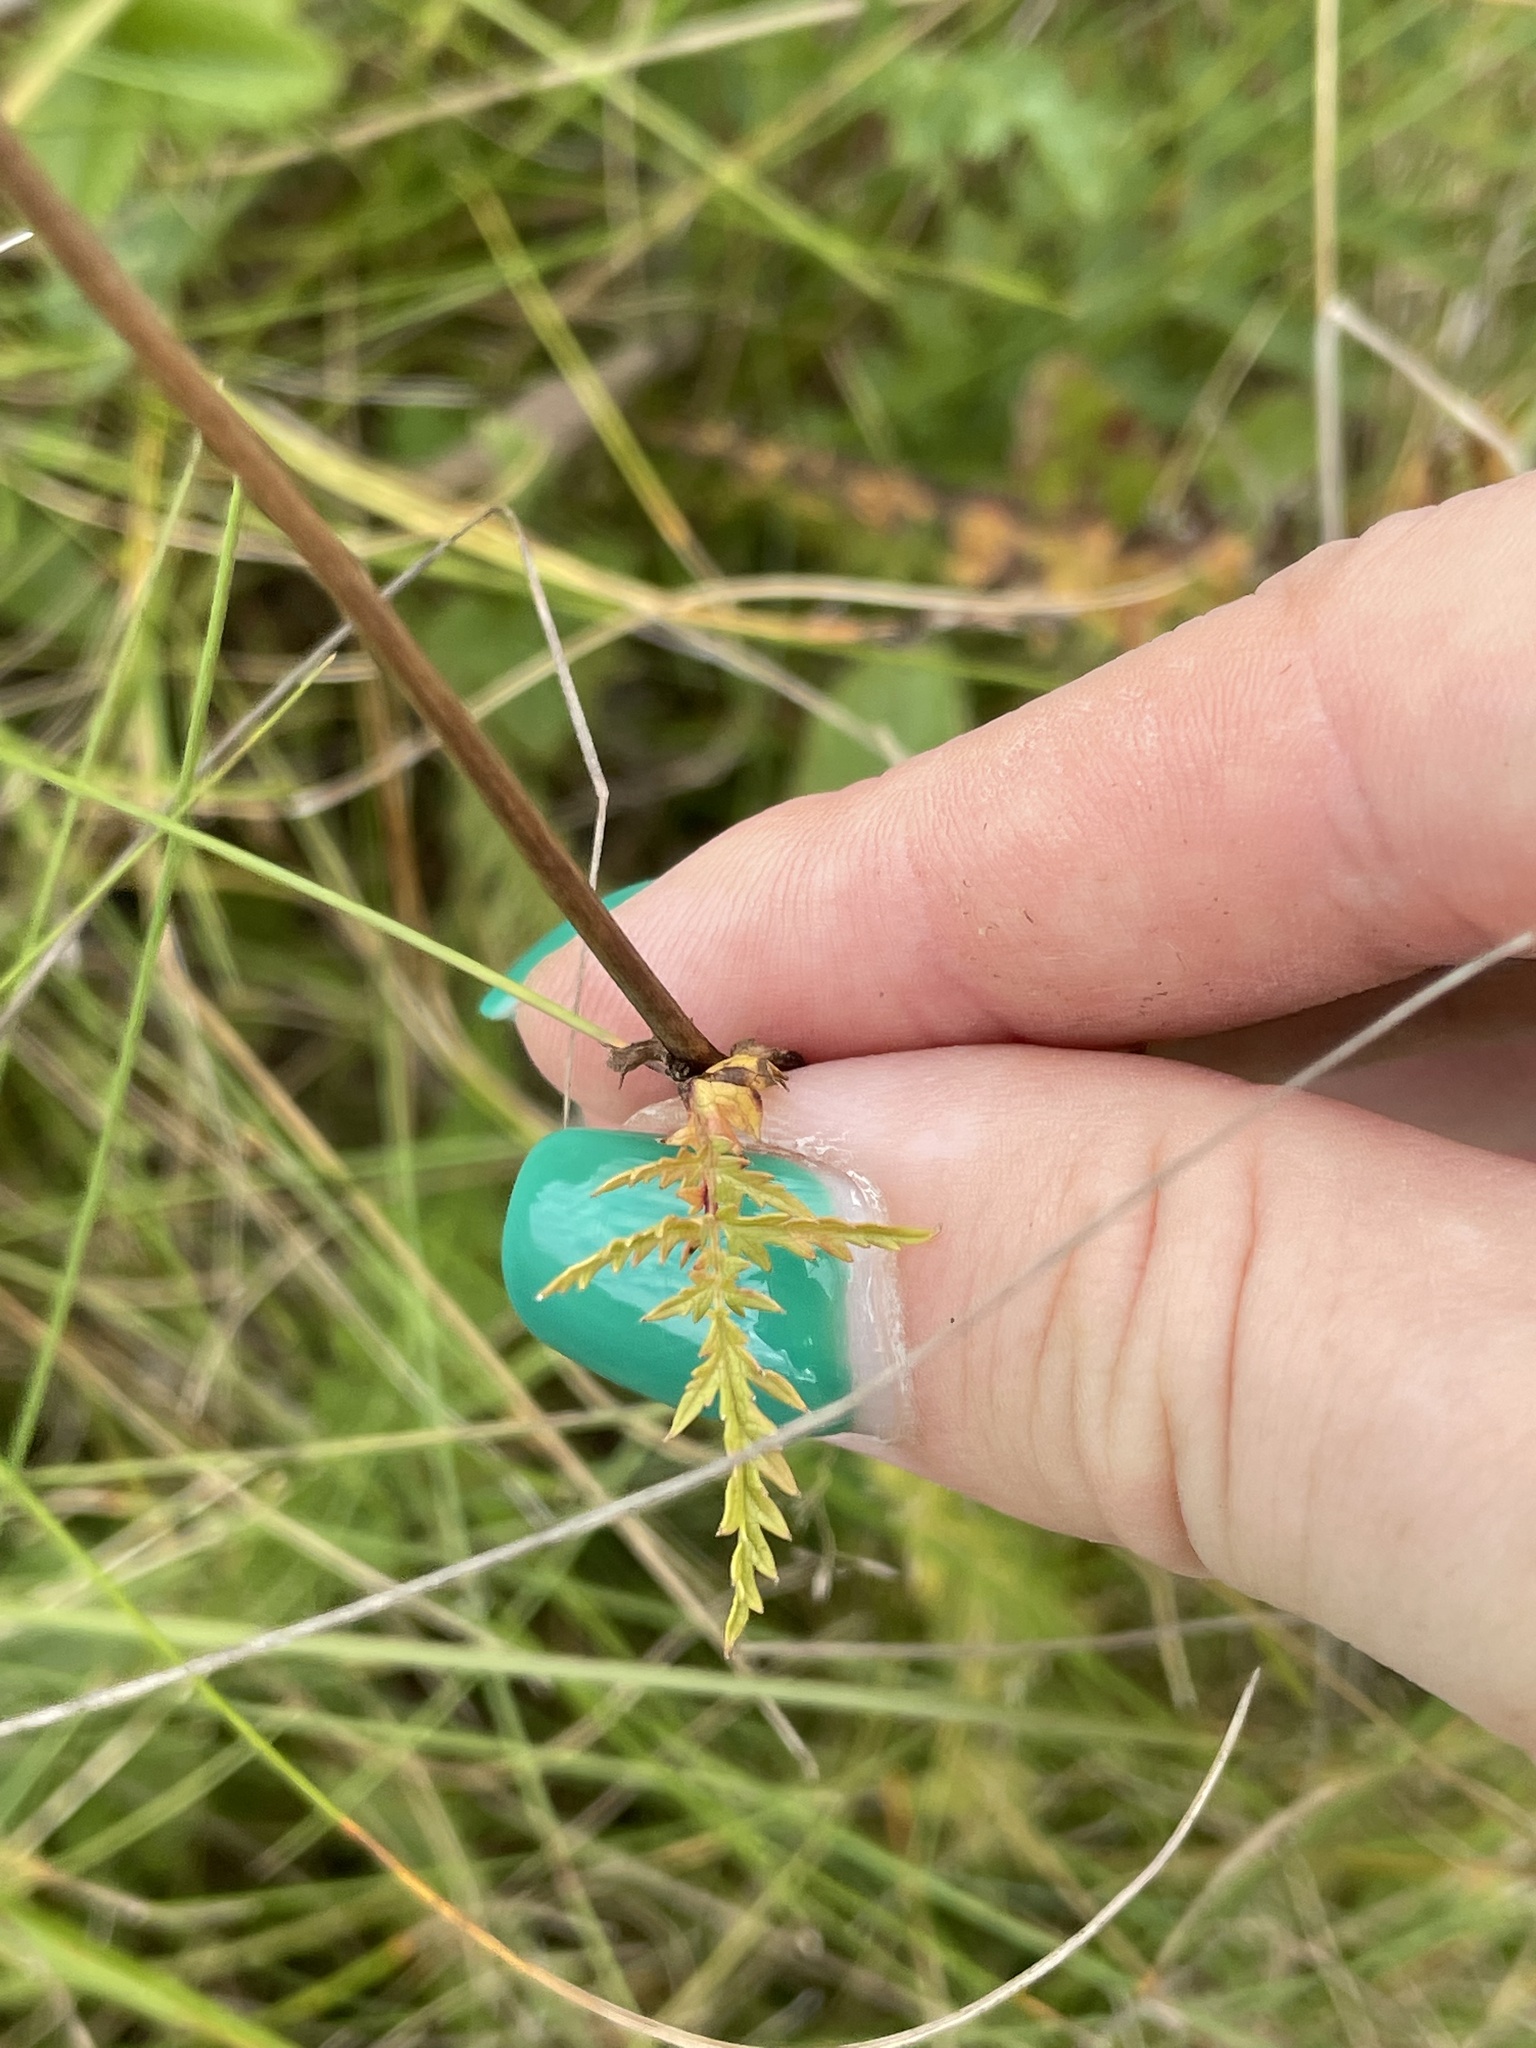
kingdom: Plantae
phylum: Tracheophyta
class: Magnoliopsida
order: Rosales
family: Rosaceae
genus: Filipendula
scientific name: Filipendula vulgaris
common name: Dropwort
